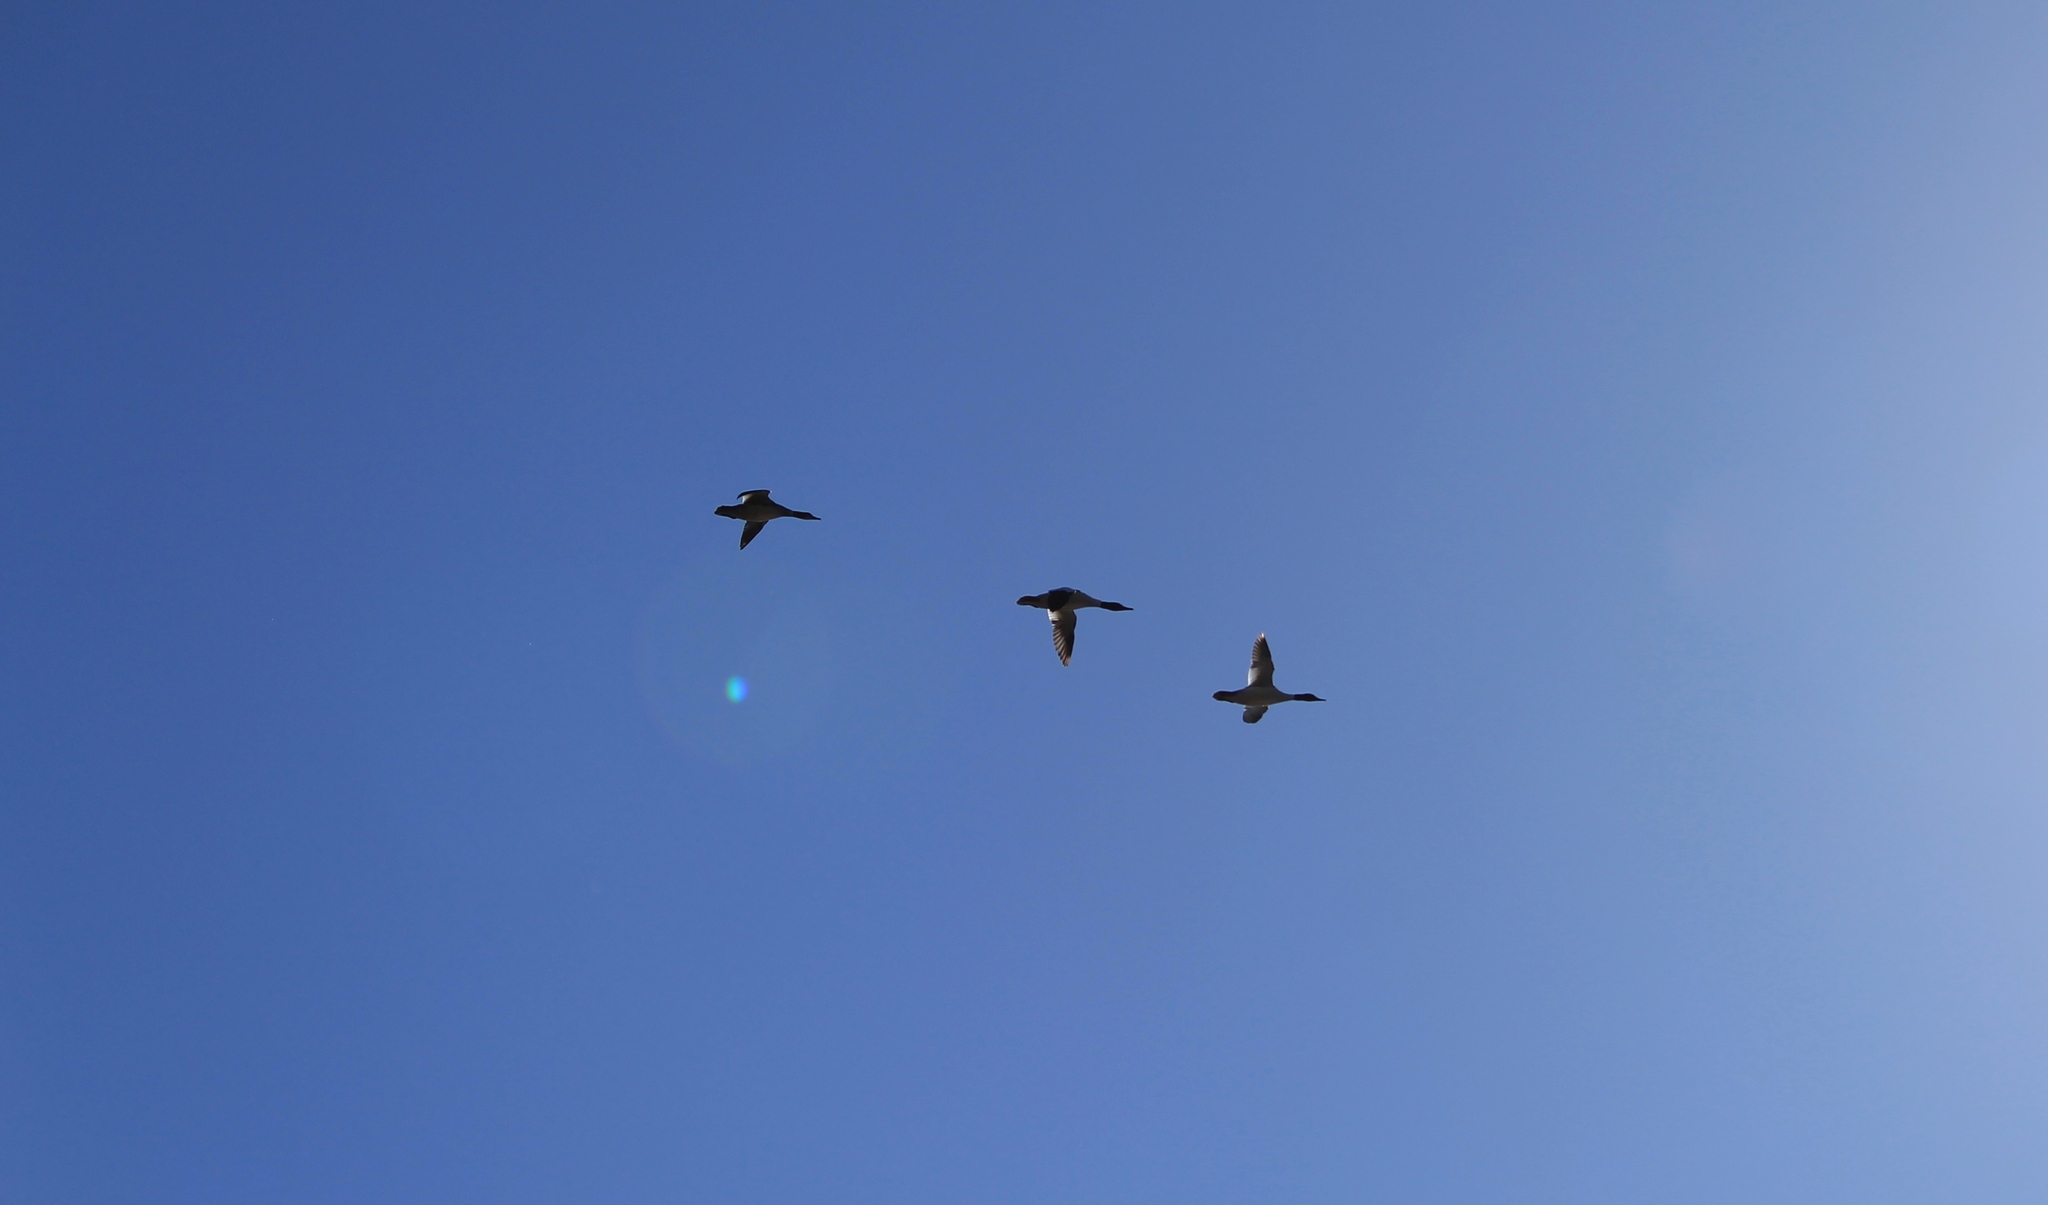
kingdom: Animalia
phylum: Chordata
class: Aves
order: Anseriformes
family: Anatidae
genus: Mergus
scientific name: Mergus merganser
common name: Common merganser
